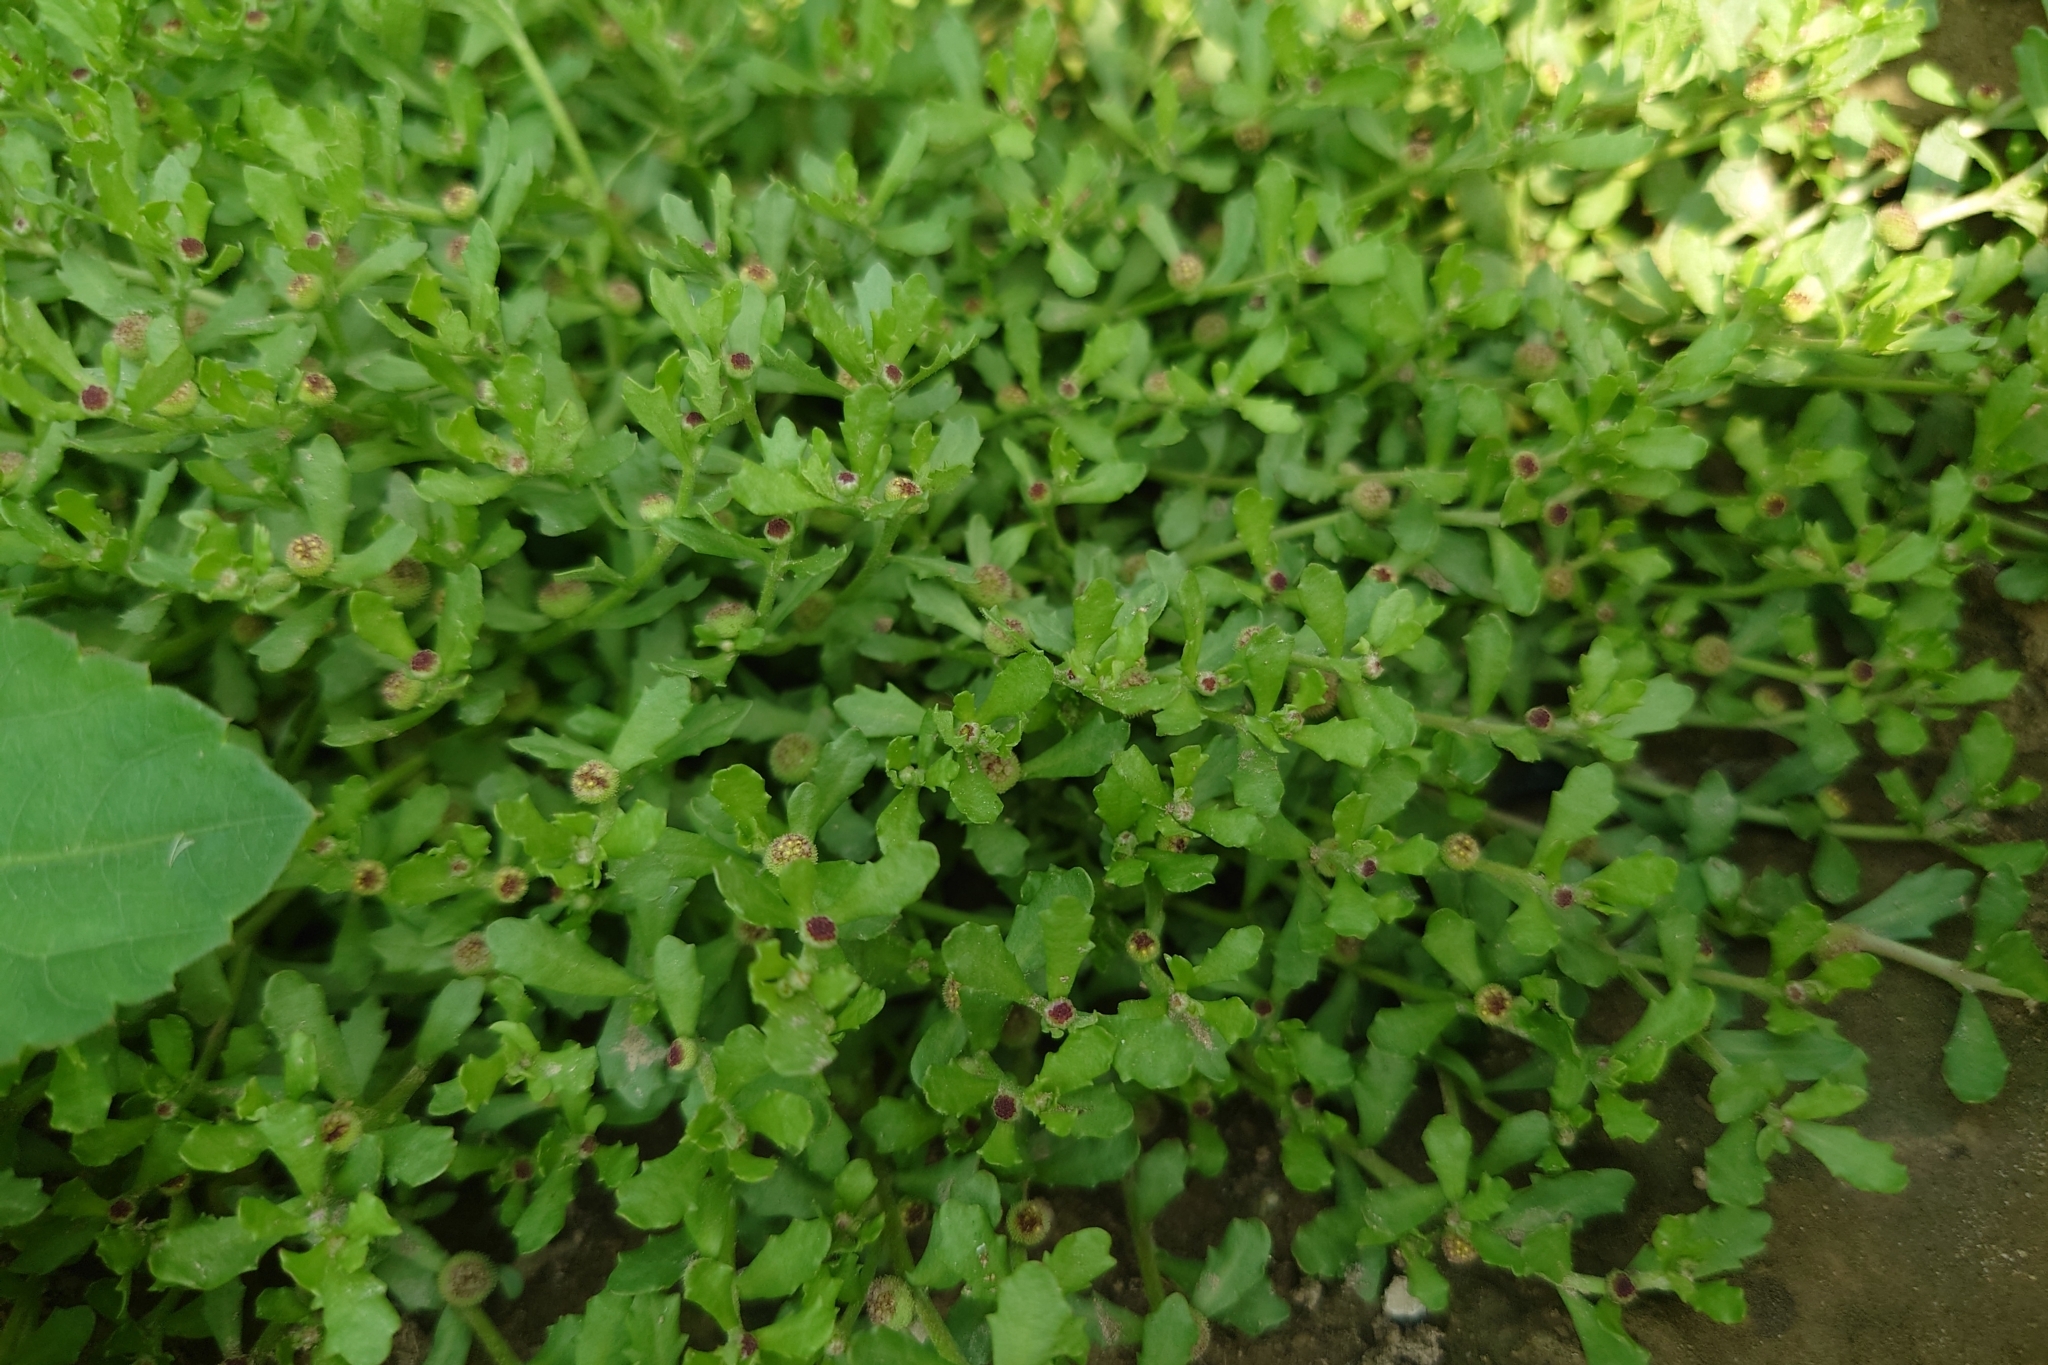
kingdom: Plantae
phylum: Tracheophyta
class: Magnoliopsida
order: Asterales
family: Asteraceae
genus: Centipeda
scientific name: Centipeda minima
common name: Spreading sneezeweed
